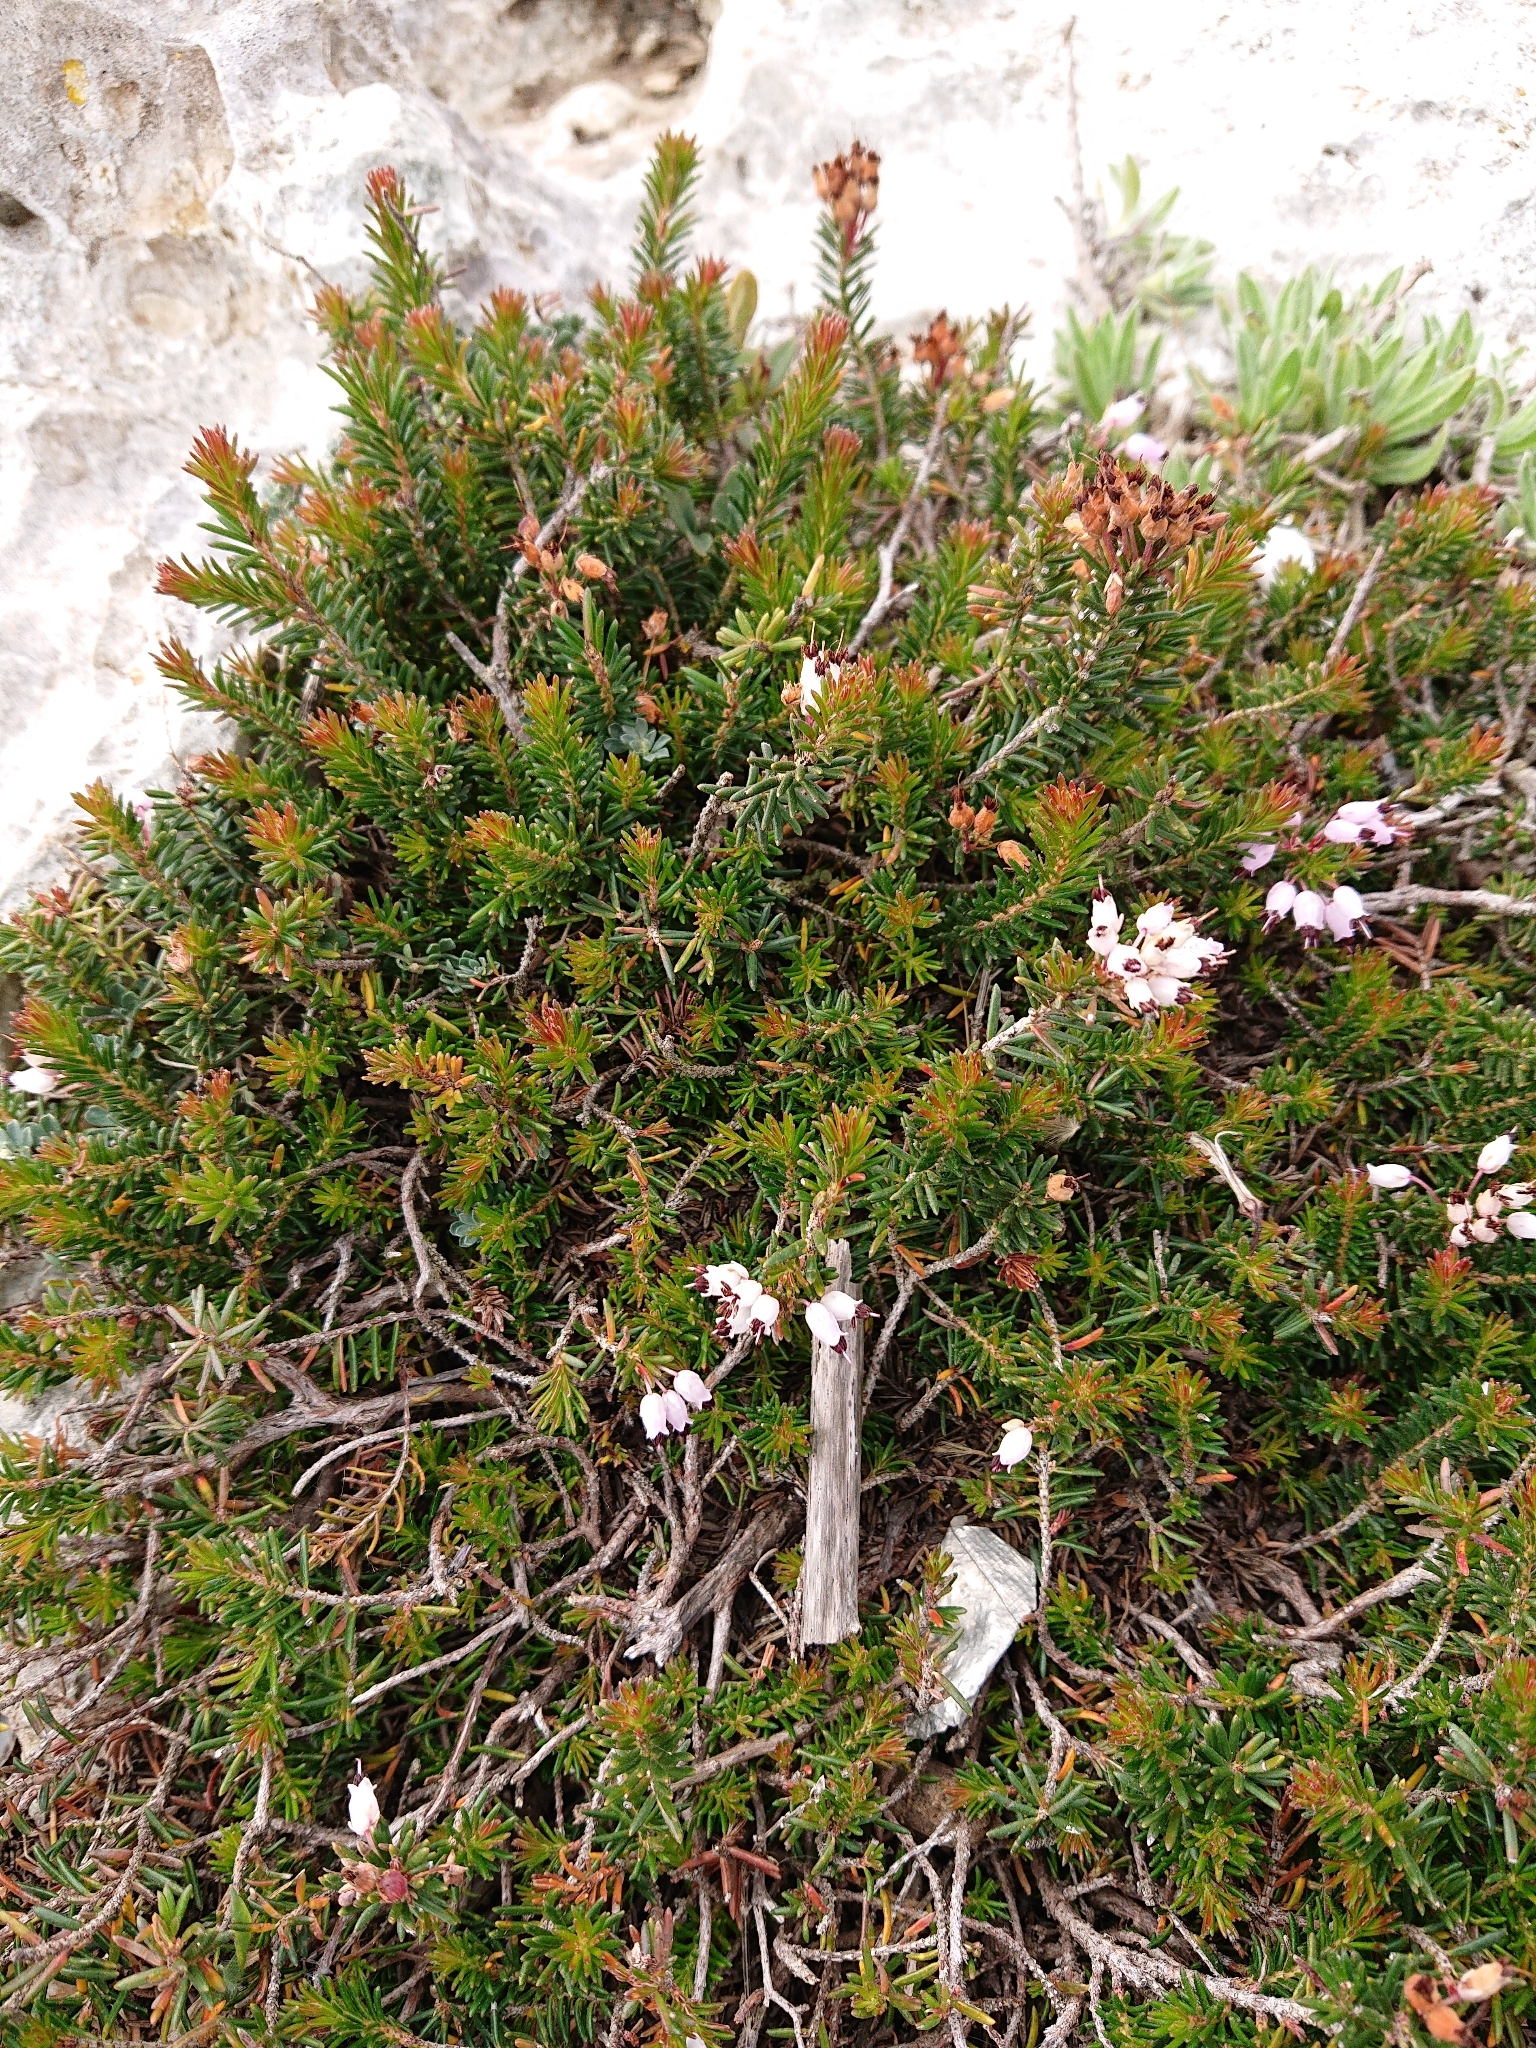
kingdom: Plantae
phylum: Tracheophyta
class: Magnoliopsida
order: Ericales
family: Ericaceae
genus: Erica
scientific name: Erica multiflora
